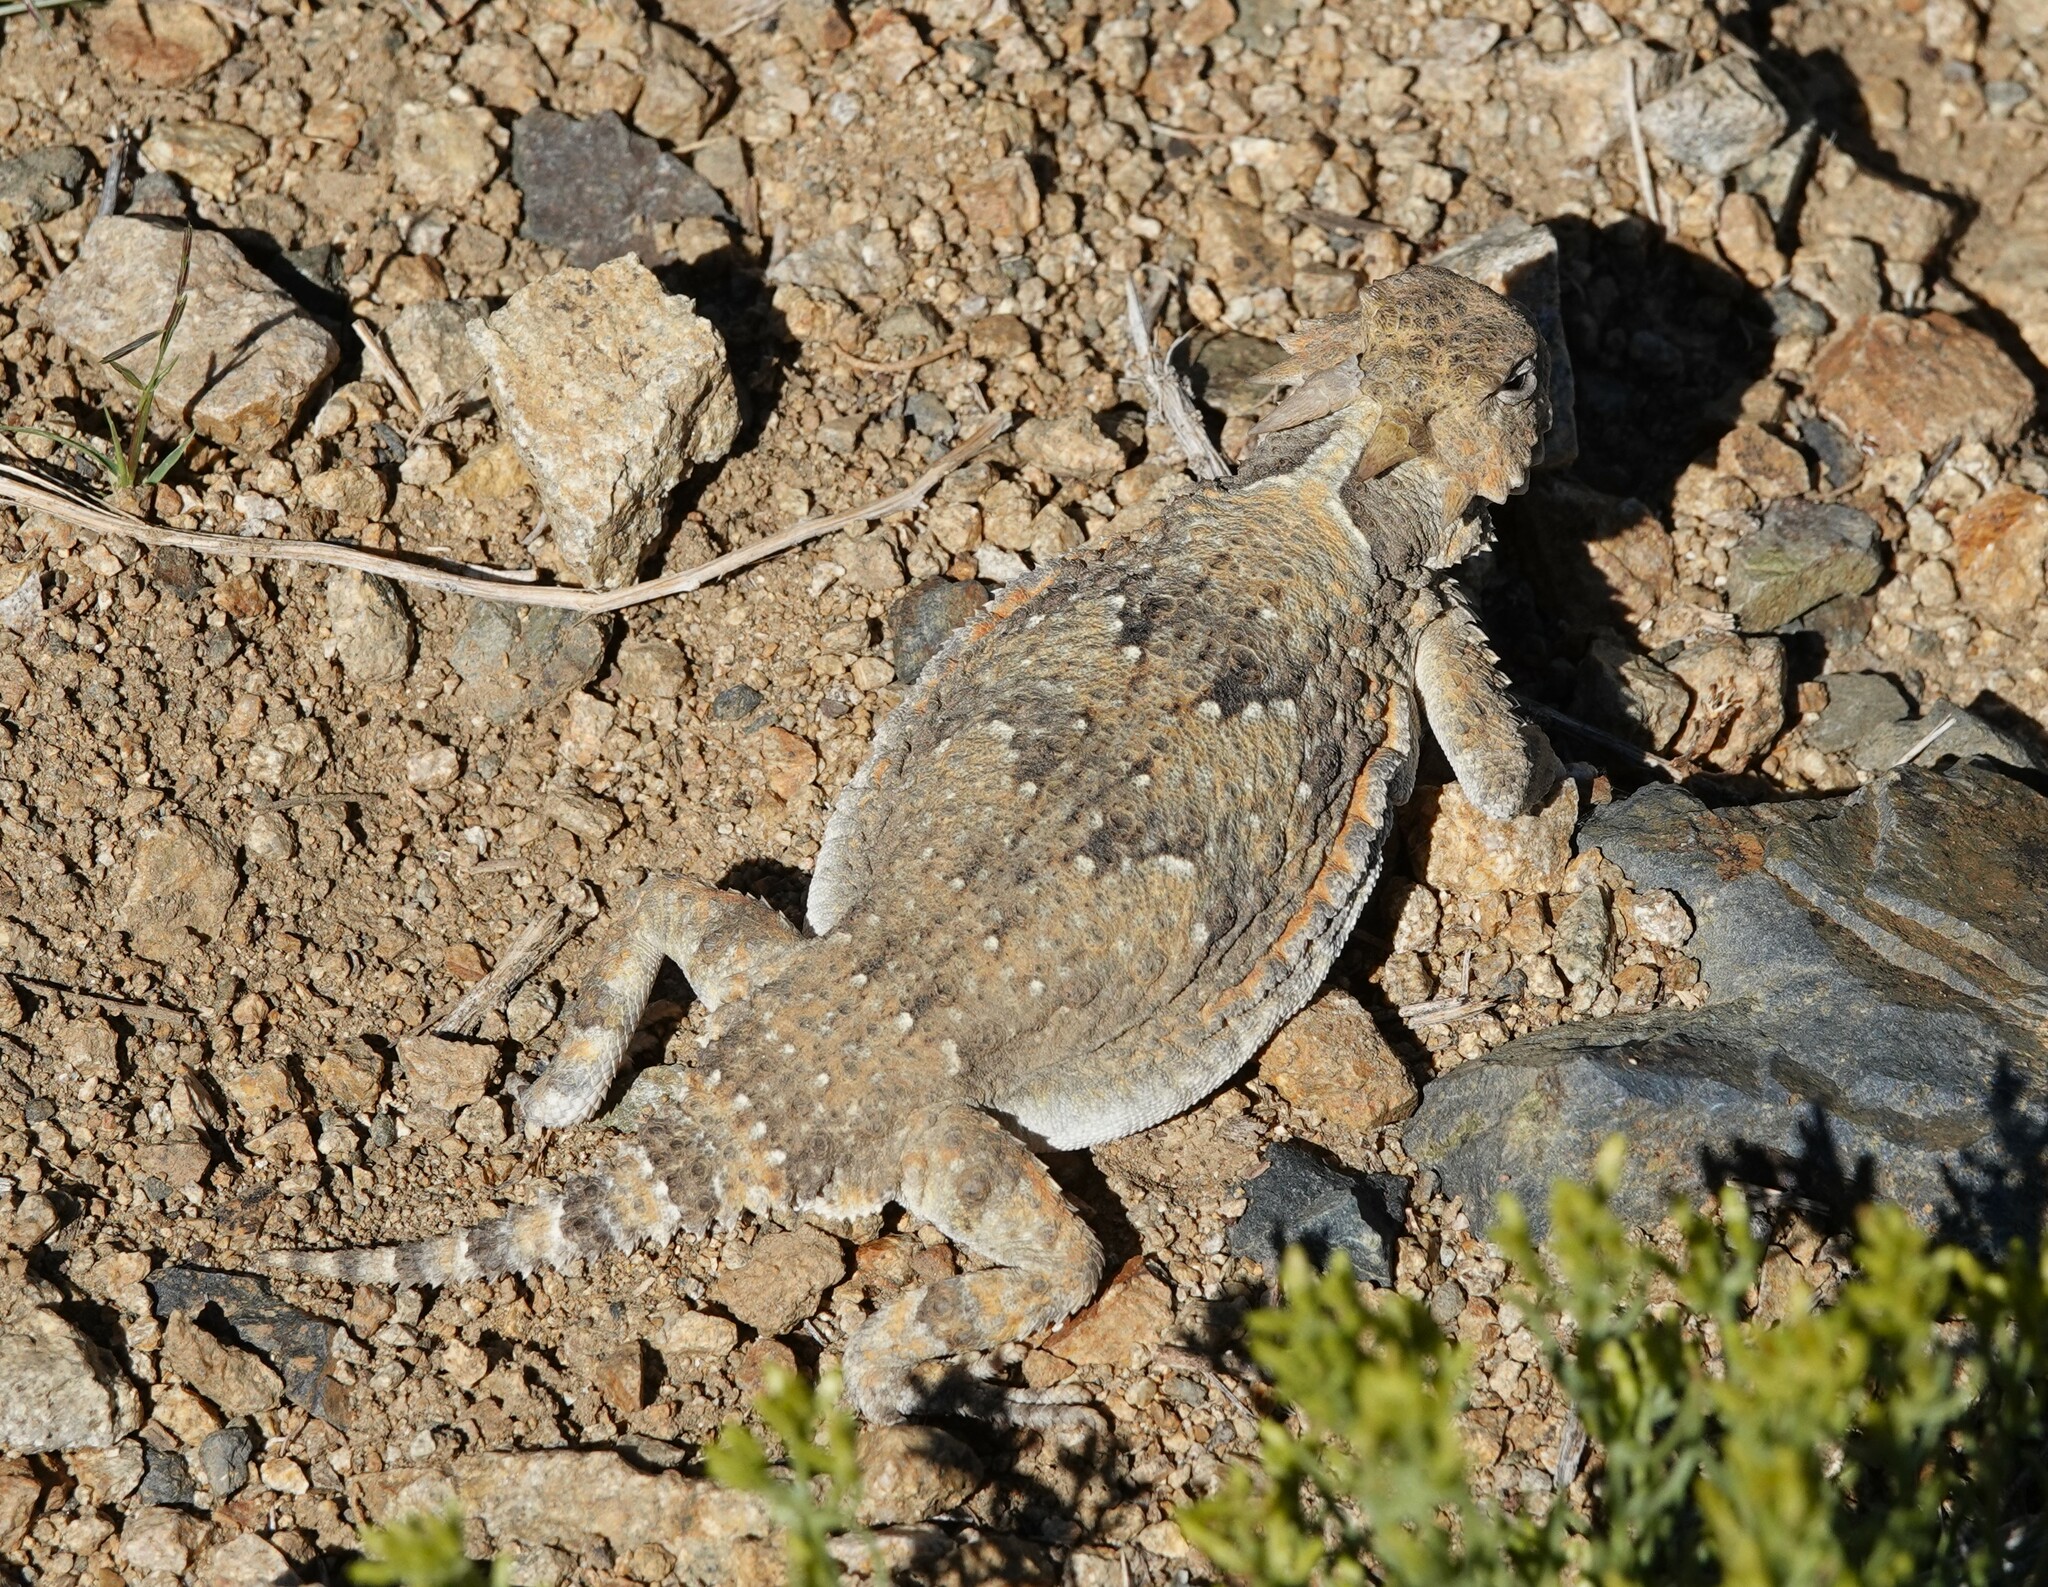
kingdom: Animalia
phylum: Chordata
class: Squamata
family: Phrynosomatidae
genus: Phrynosoma
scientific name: Phrynosoma platyrhinos
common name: Desert horned lizard
